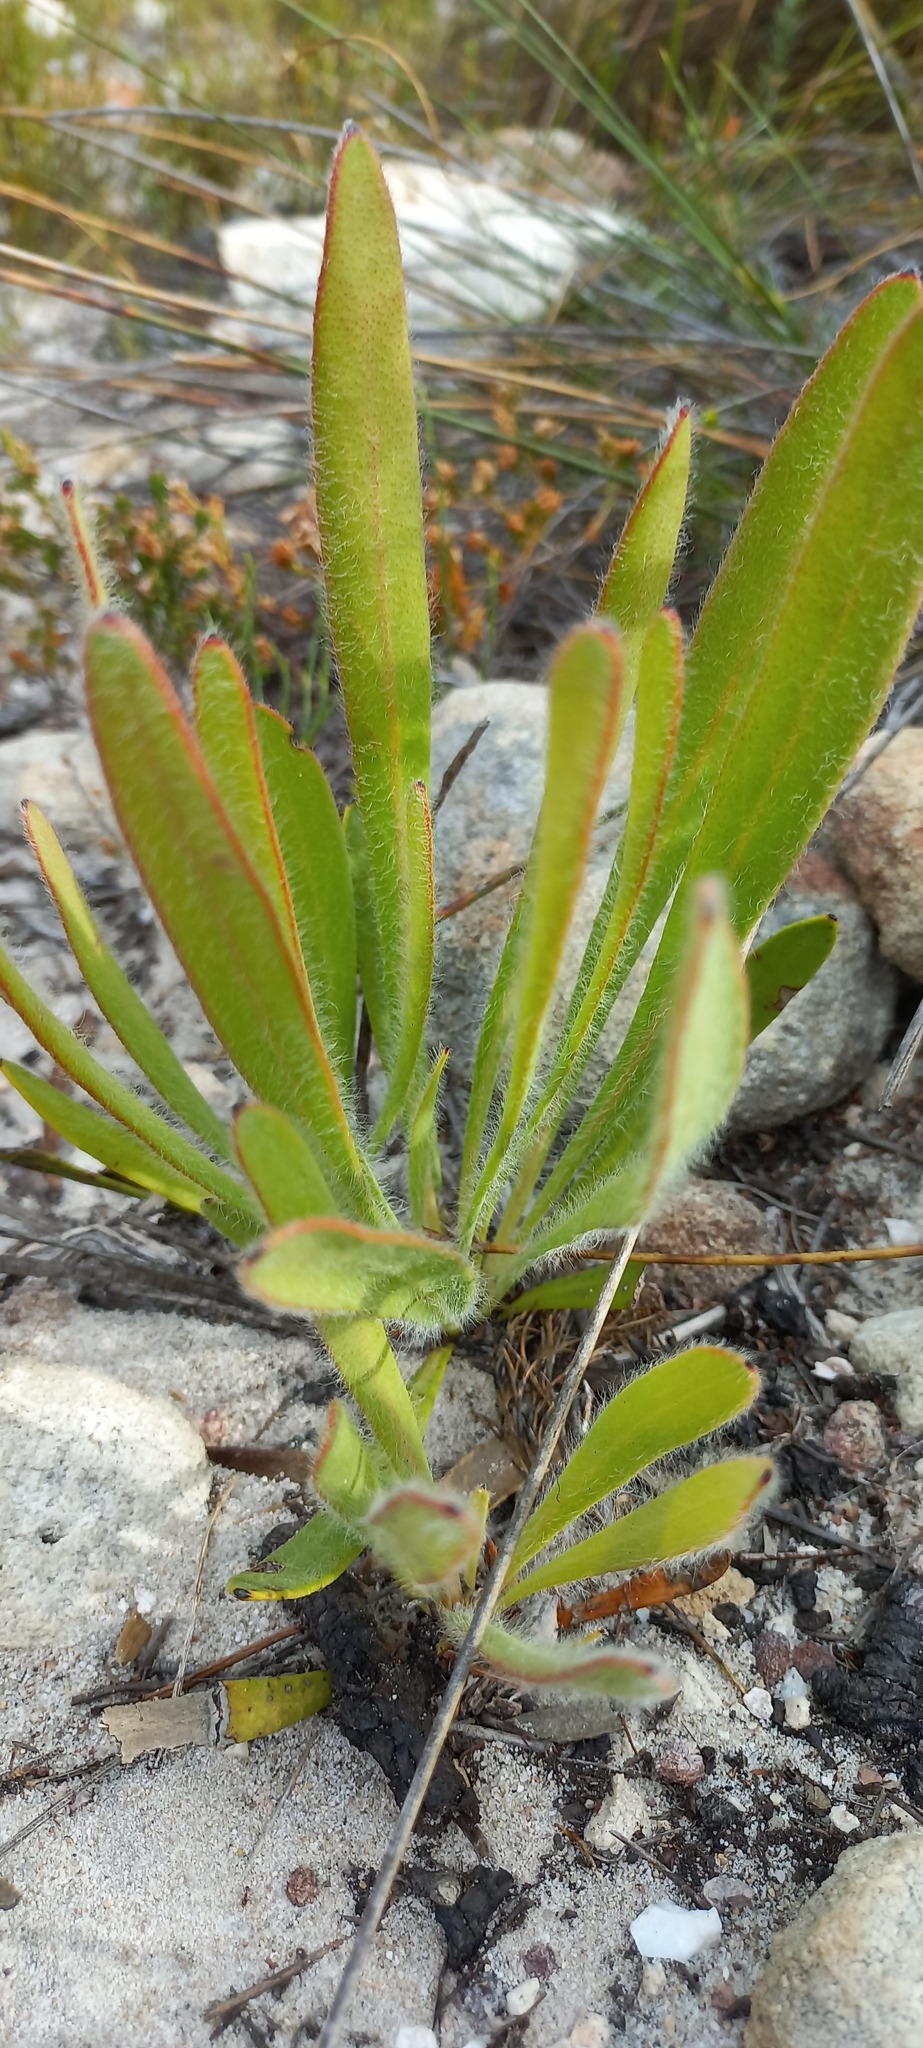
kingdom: Plantae
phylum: Tracheophyta
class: Magnoliopsida
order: Proteales
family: Proteaceae
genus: Protea
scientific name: Protea scabra
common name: Sandpaper-leaf sugarbush
